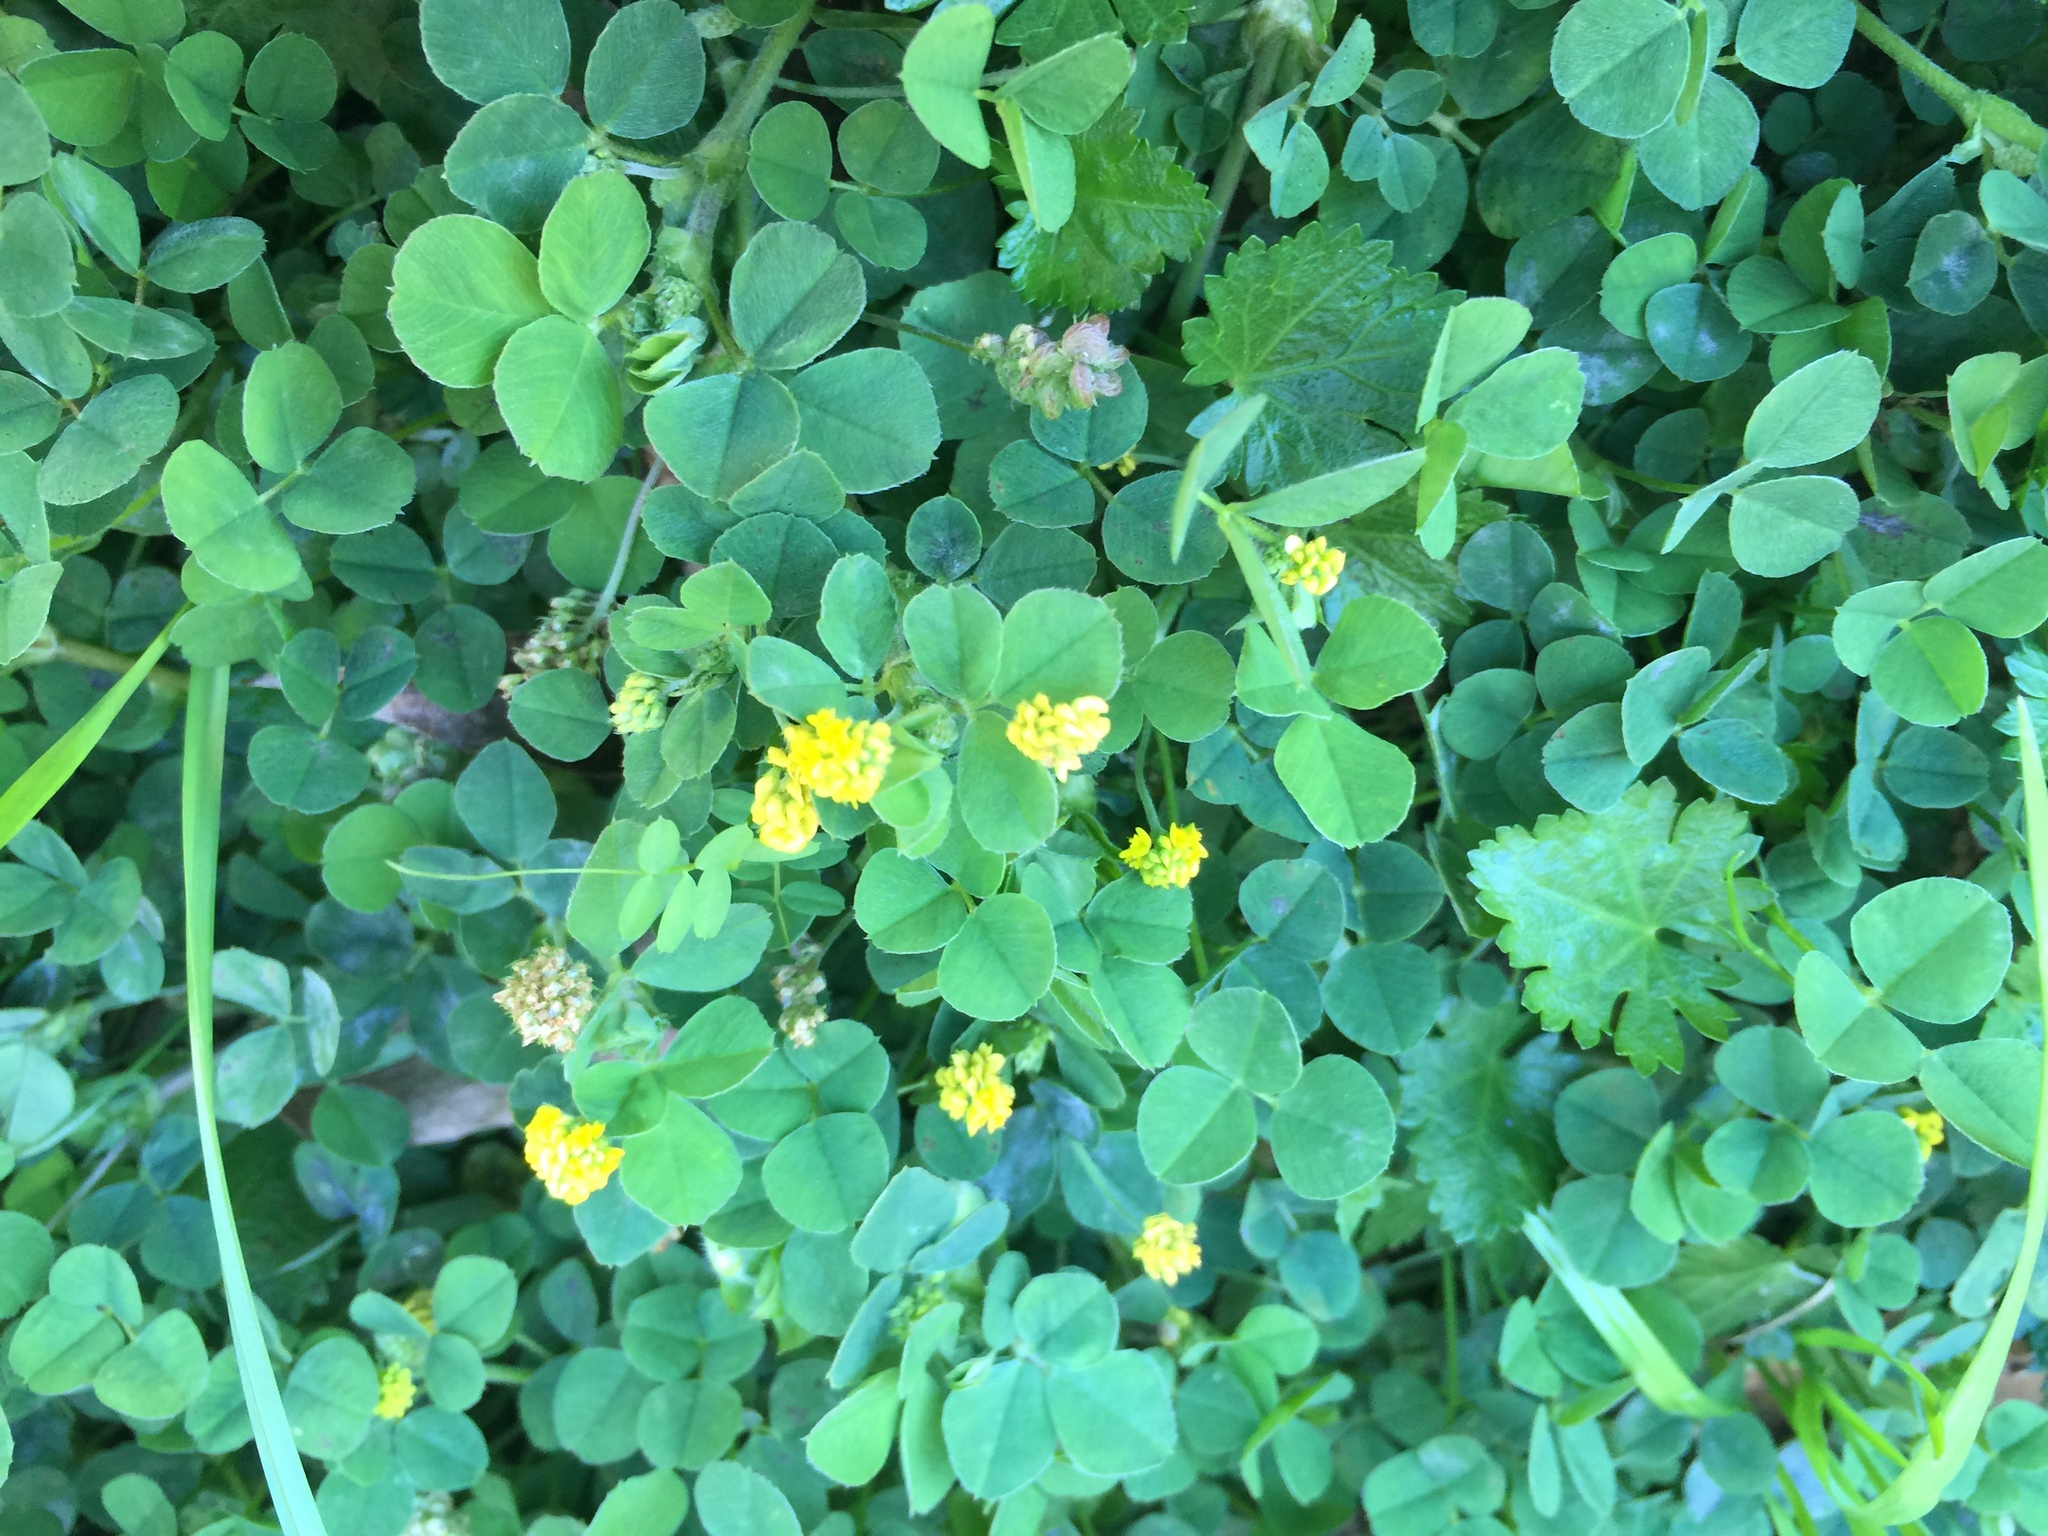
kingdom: Plantae
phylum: Tracheophyta
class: Magnoliopsida
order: Fabales
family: Fabaceae
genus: Medicago
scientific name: Medicago lupulina
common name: Black medick
